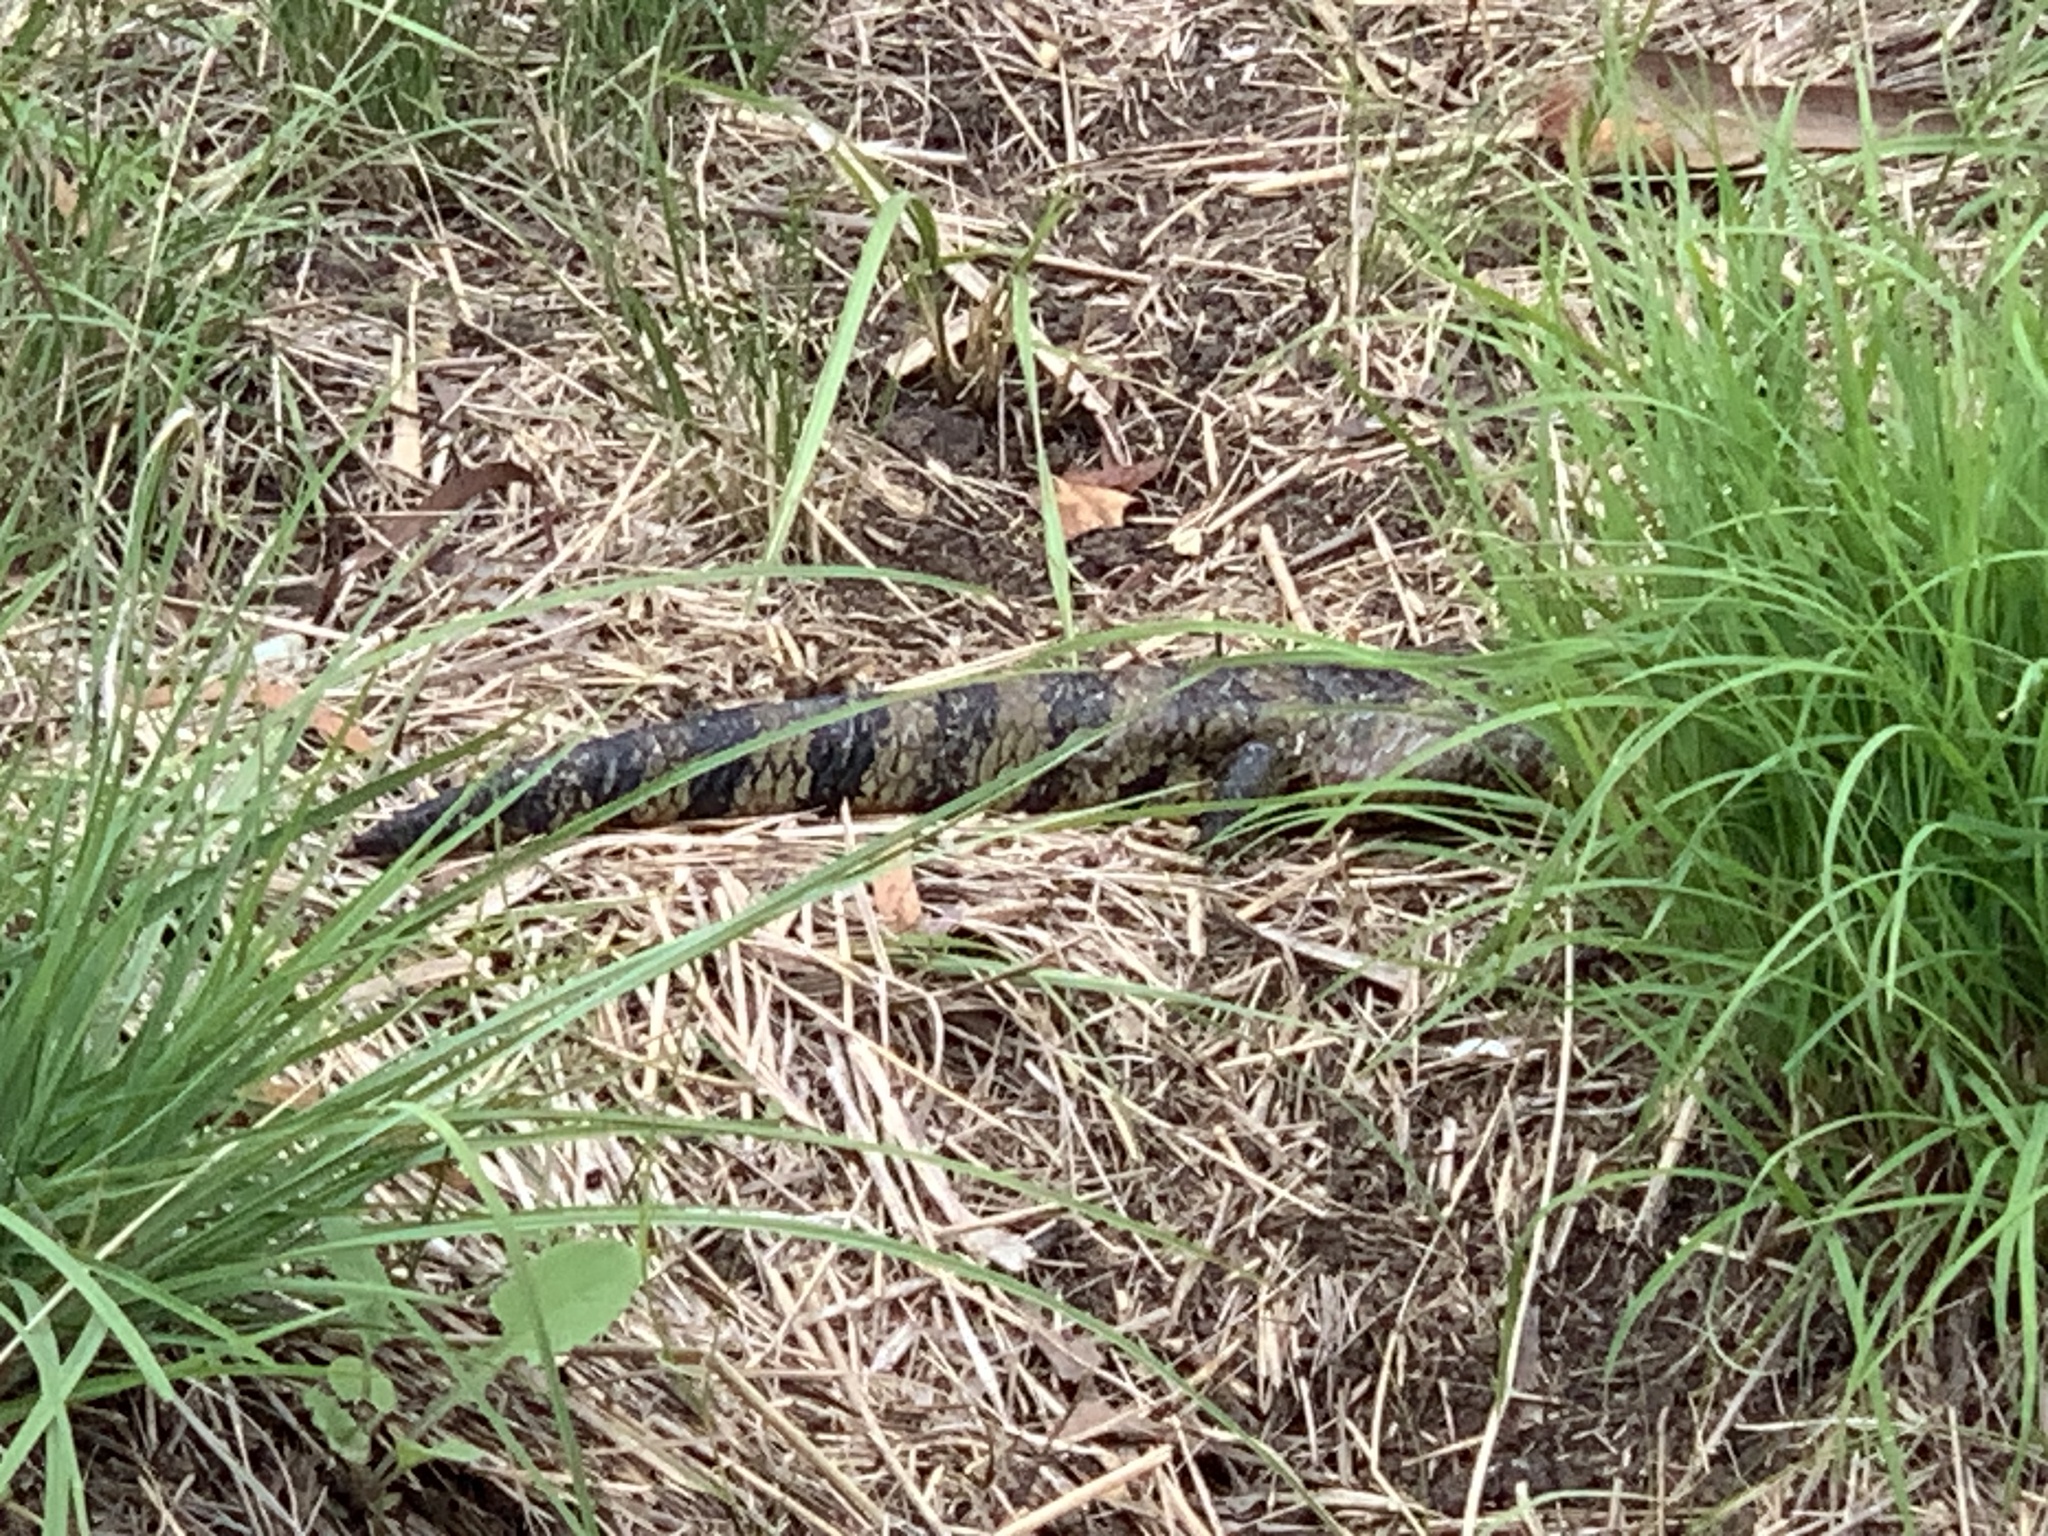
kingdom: Animalia
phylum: Chordata
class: Squamata
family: Scincidae
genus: Tiliqua
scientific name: Tiliqua scincoides
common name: Common bluetongue
